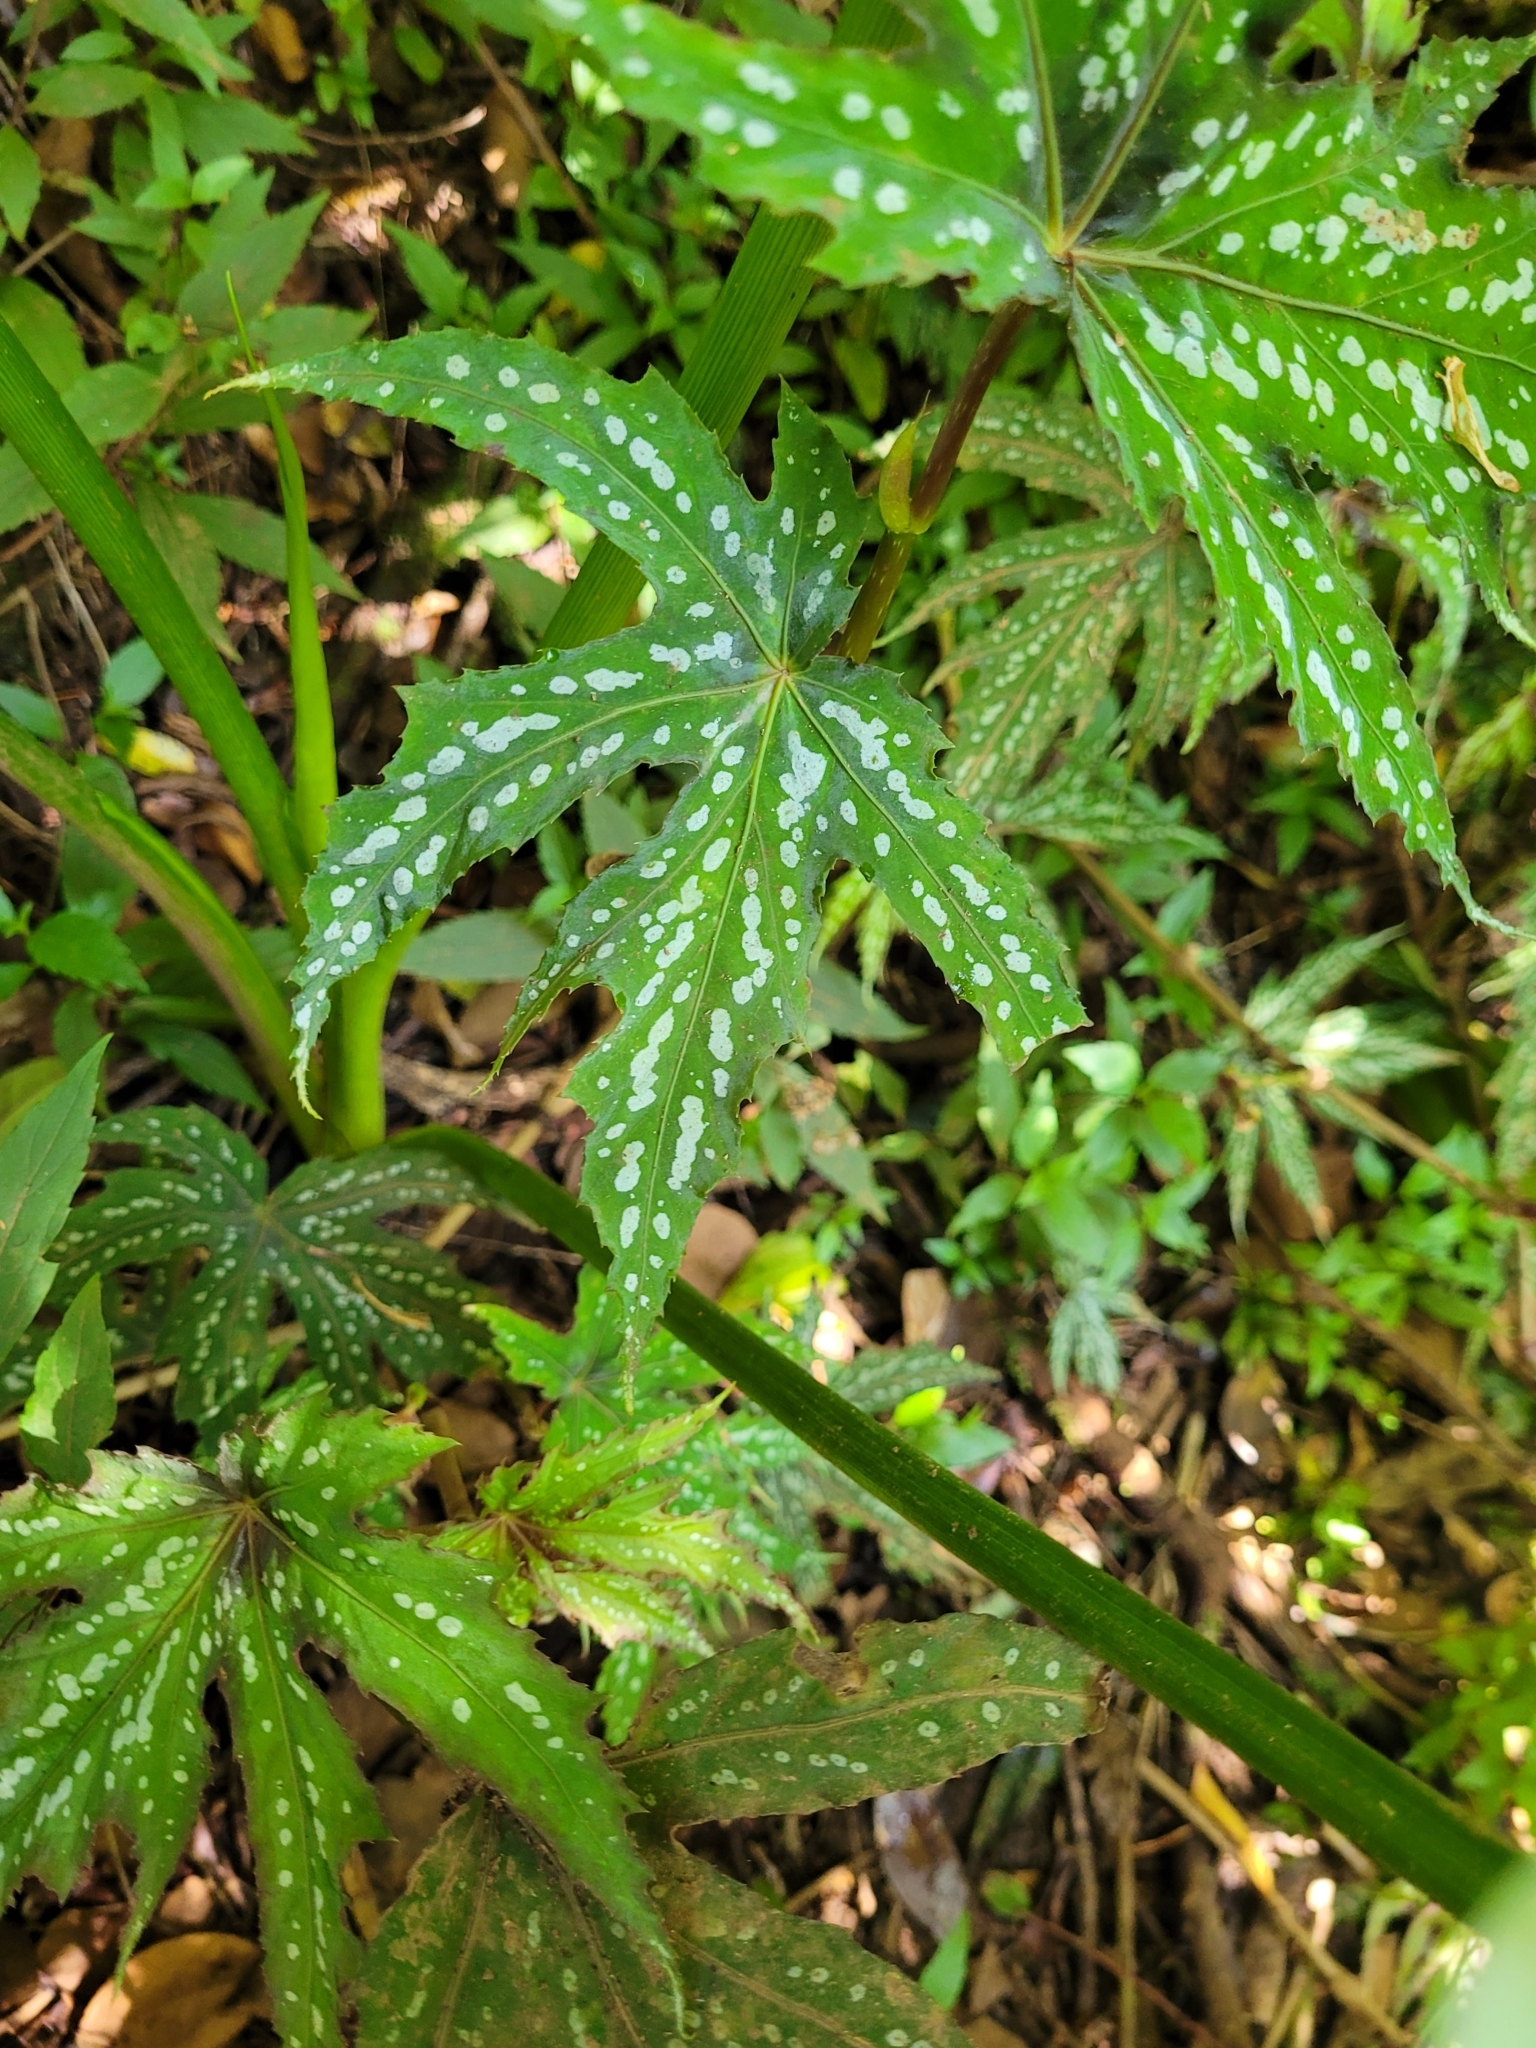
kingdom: Plantae
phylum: Tracheophyta
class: Magnoliopsida
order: Cucurbitales
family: Begoniaceae
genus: Begonia
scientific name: Begonia diadema
